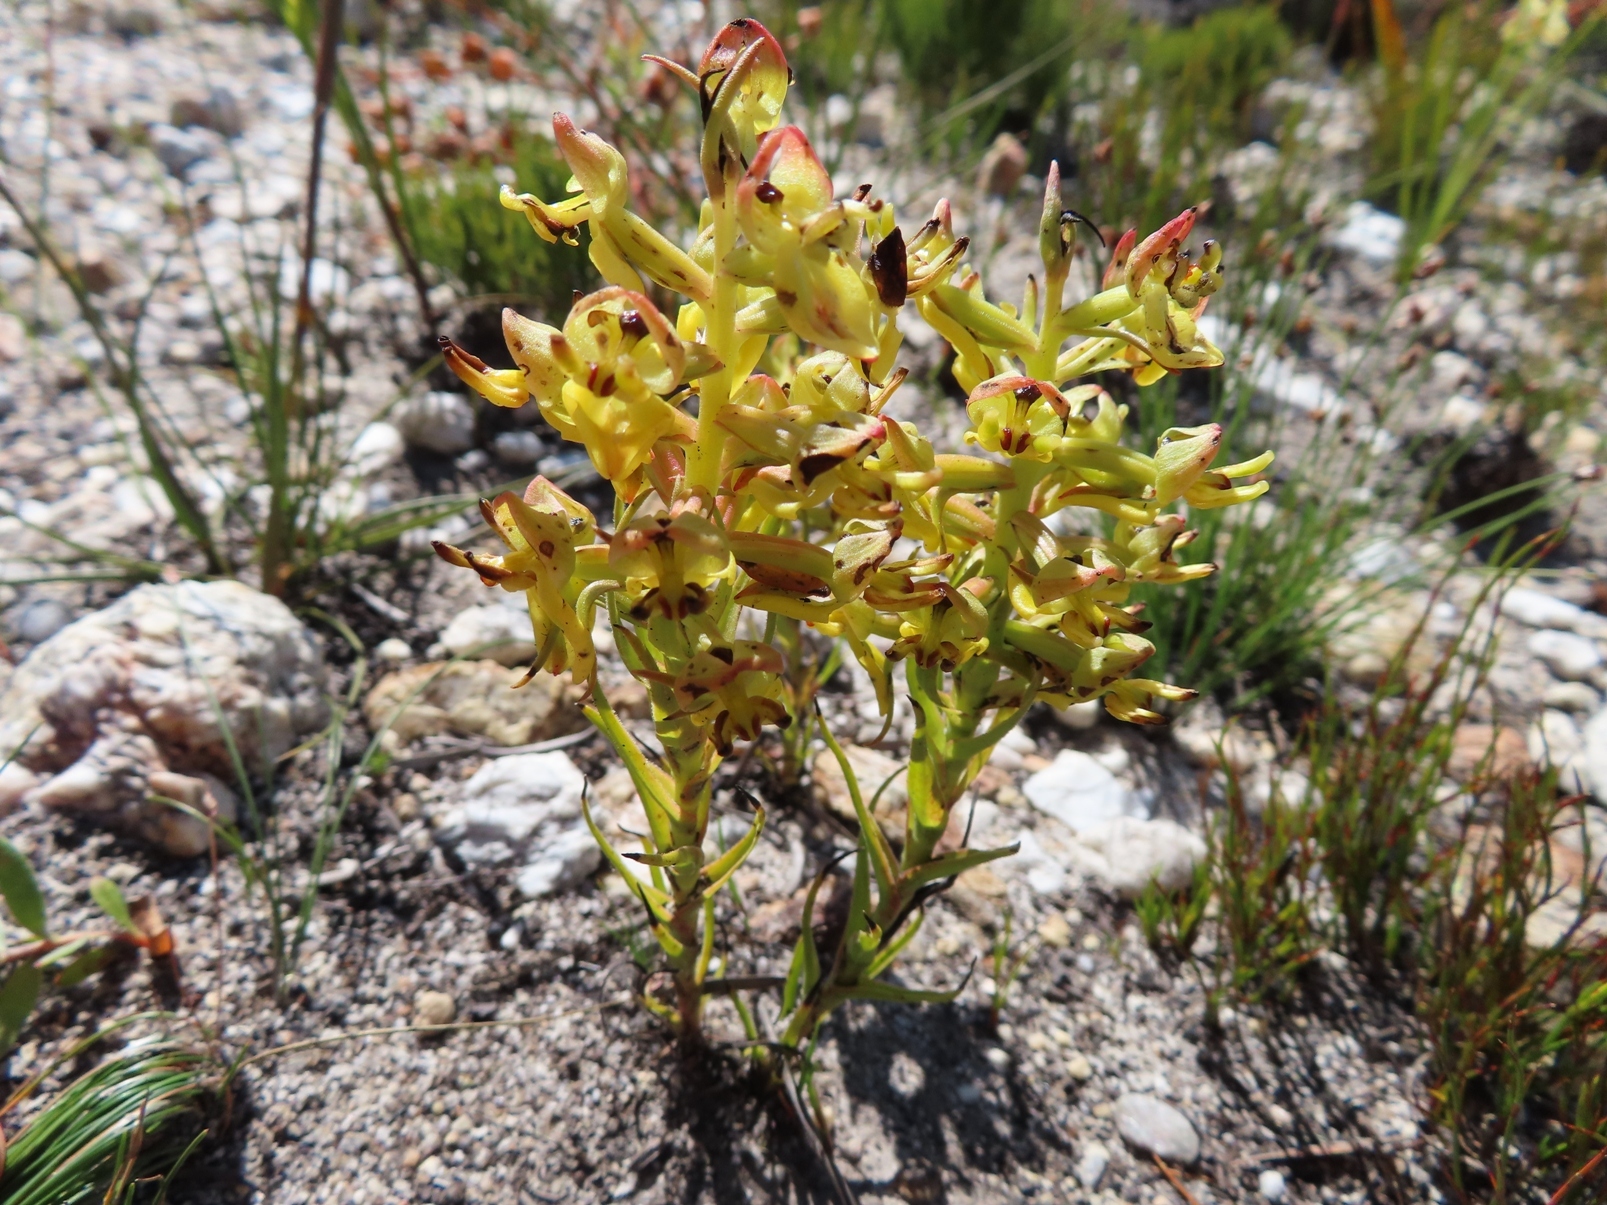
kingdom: Plantae
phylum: Tracheophyta
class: Liliopsida
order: Asparagales
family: Orchidaceae
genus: Ceratandra
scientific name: Ceratandra atrata
